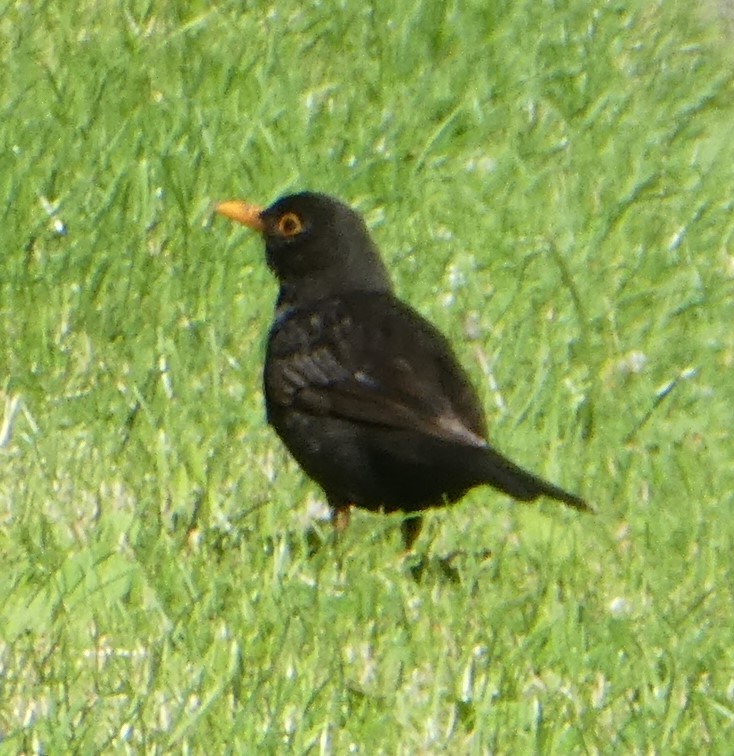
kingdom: Animalia
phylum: Chordata
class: Aves
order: Passeriformes
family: Turdidae
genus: Turdus
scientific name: Turdus merula
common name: Common blackbird
